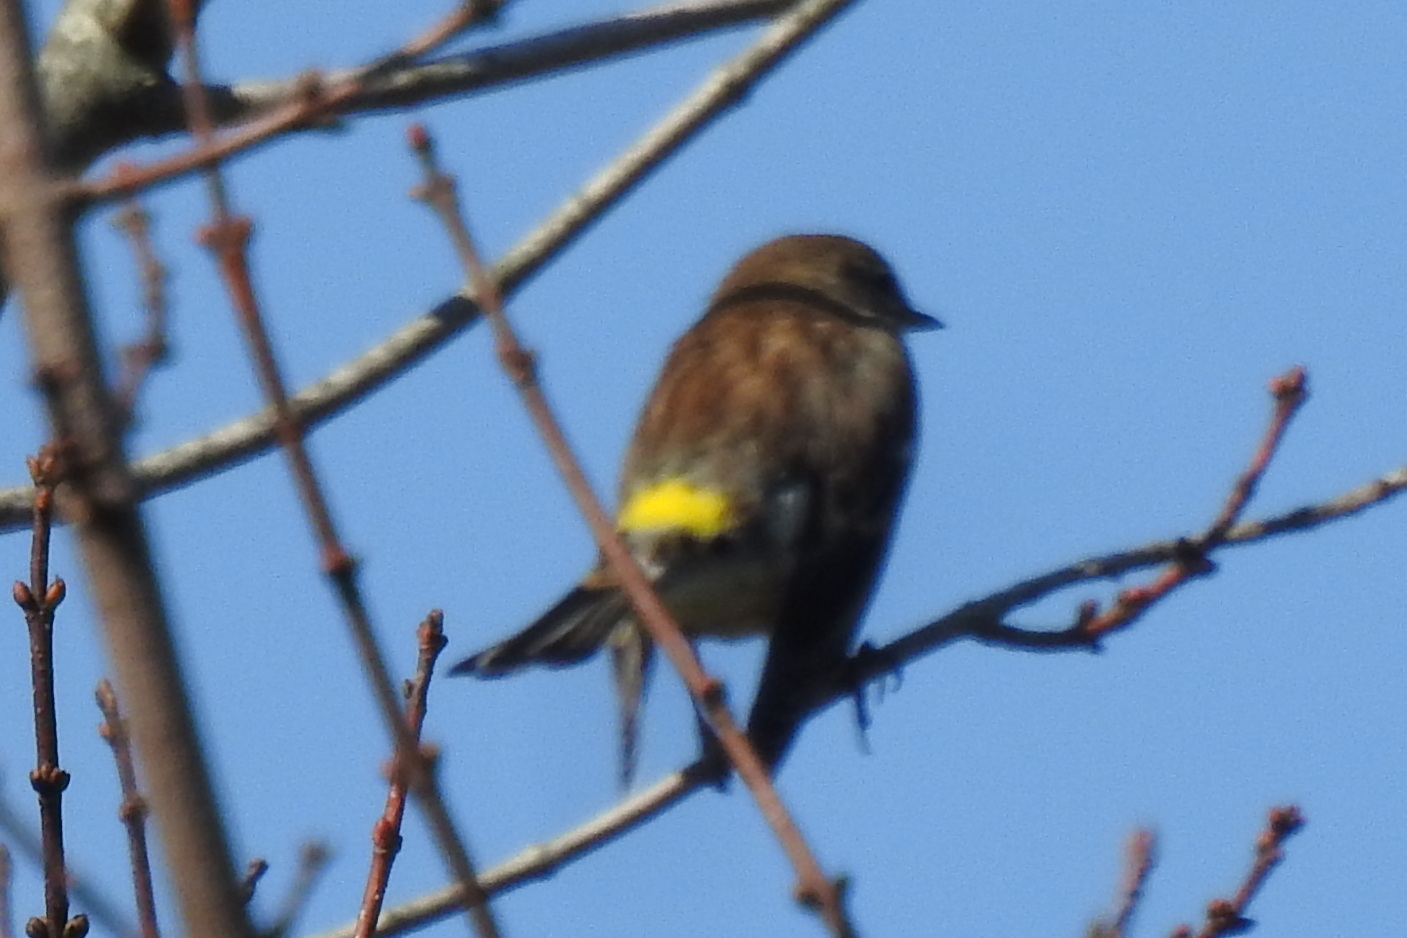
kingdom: Animalia
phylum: Chordata
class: Aves
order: Passeriformes
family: Parulidae
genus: Setophaga
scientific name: Setophaga coronata
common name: Myrtle warbler
